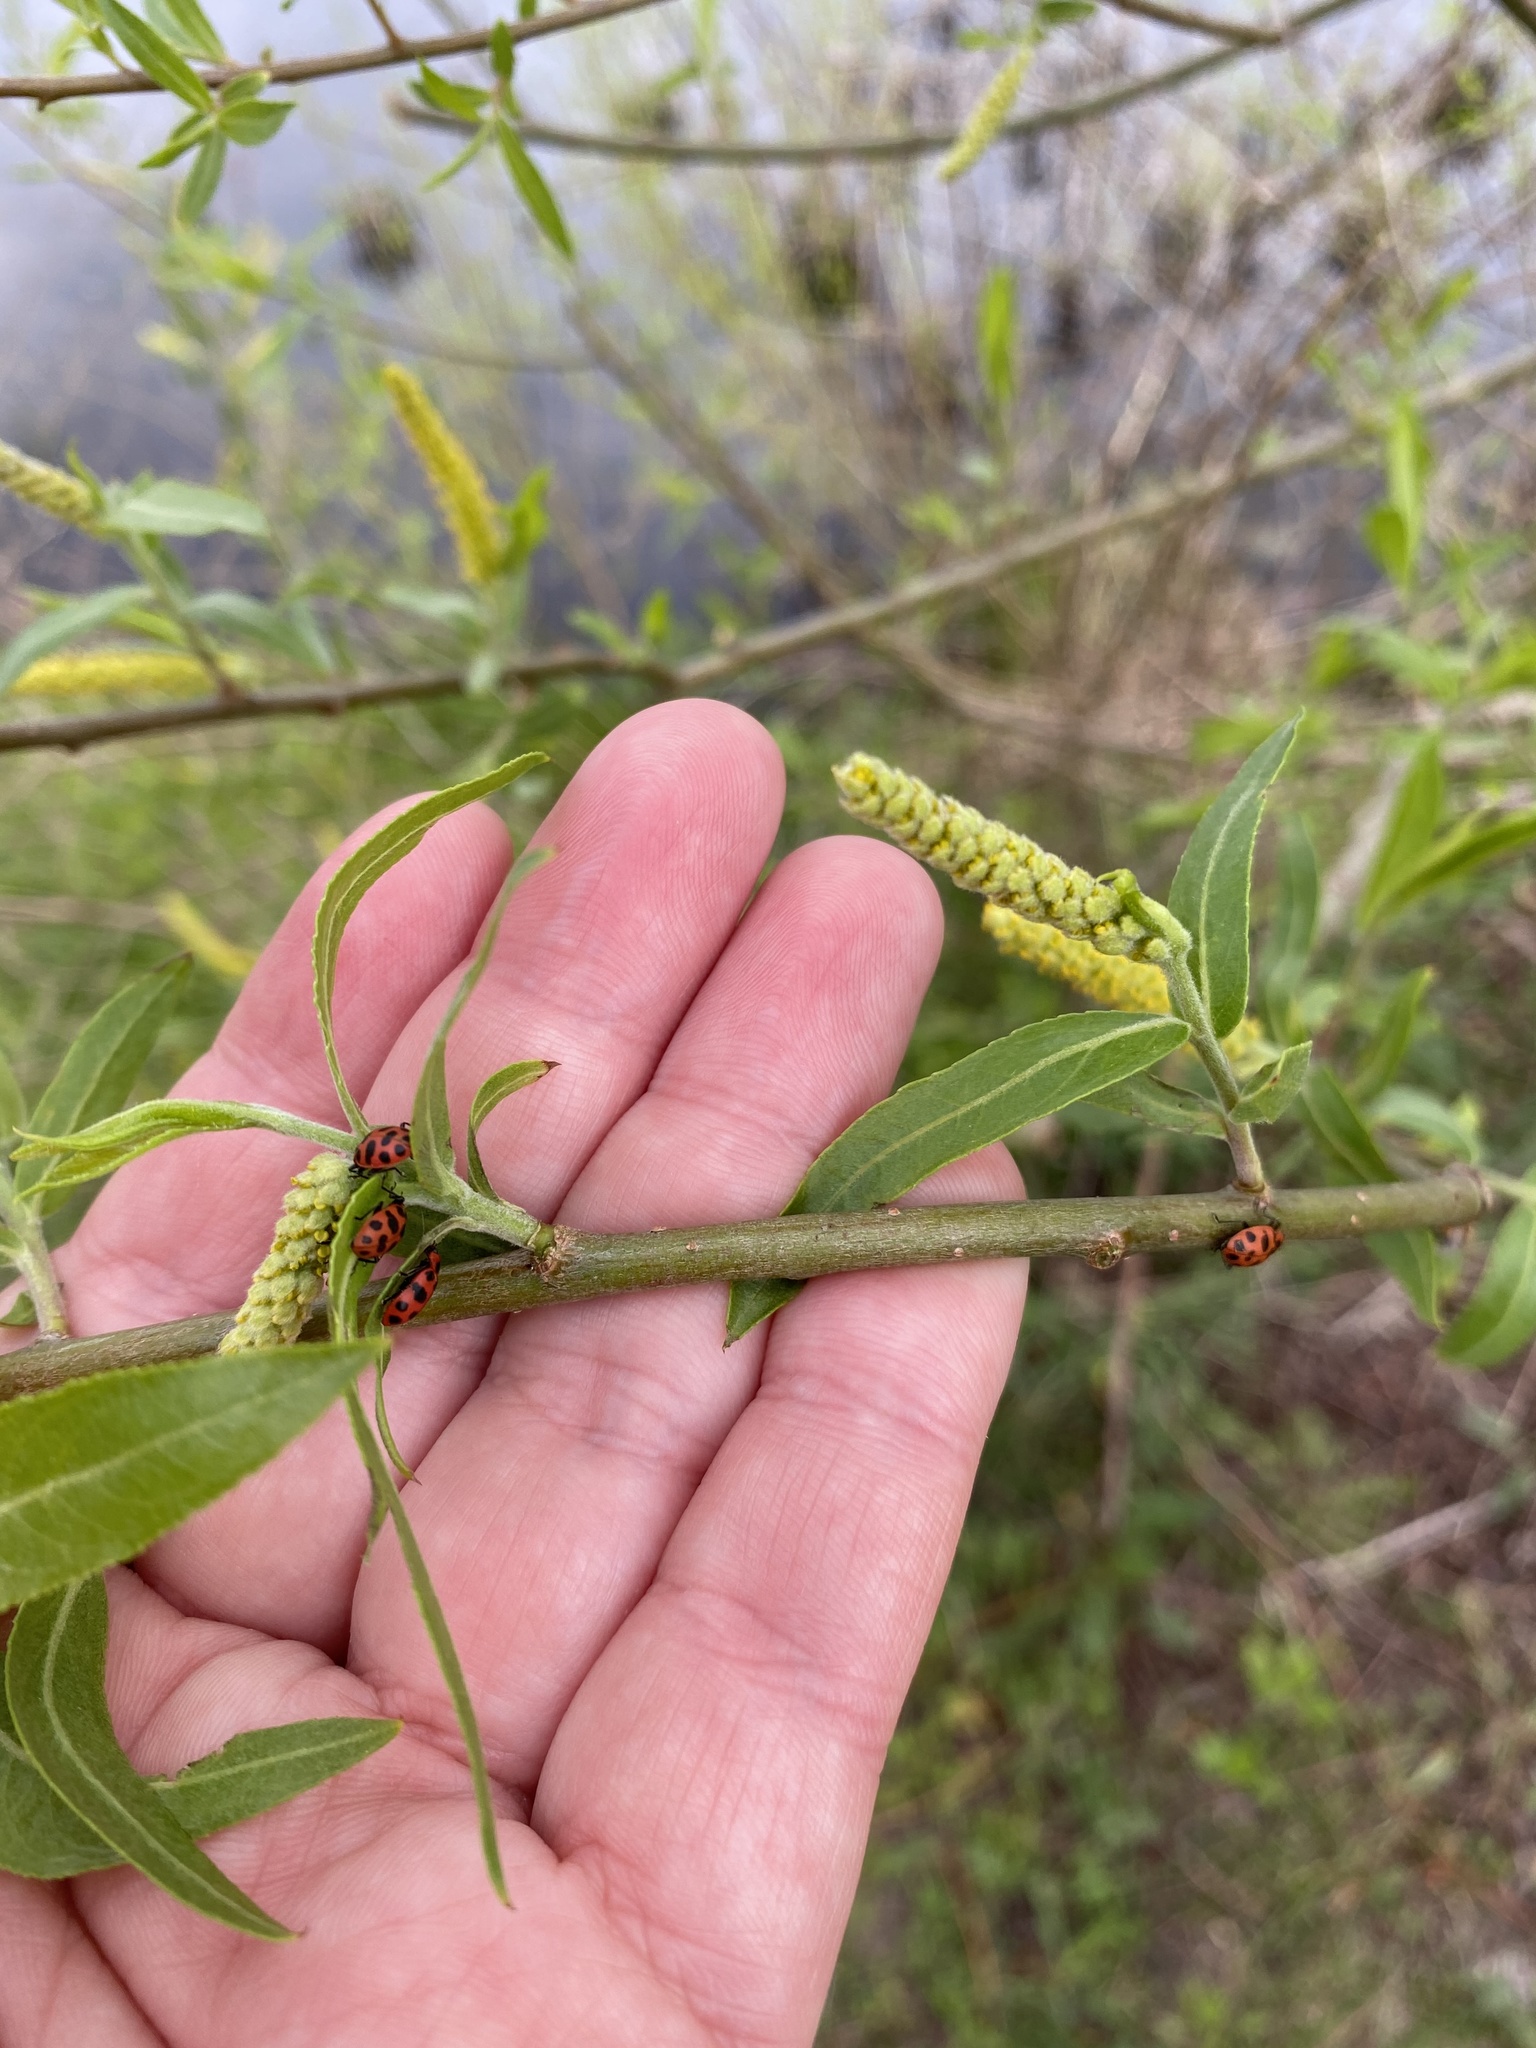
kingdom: Animalia
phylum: Arthropoda
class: Insecta
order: Coleoptera
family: Coccinellidae
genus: Coleomegilla
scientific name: Coleomegilla maculata
